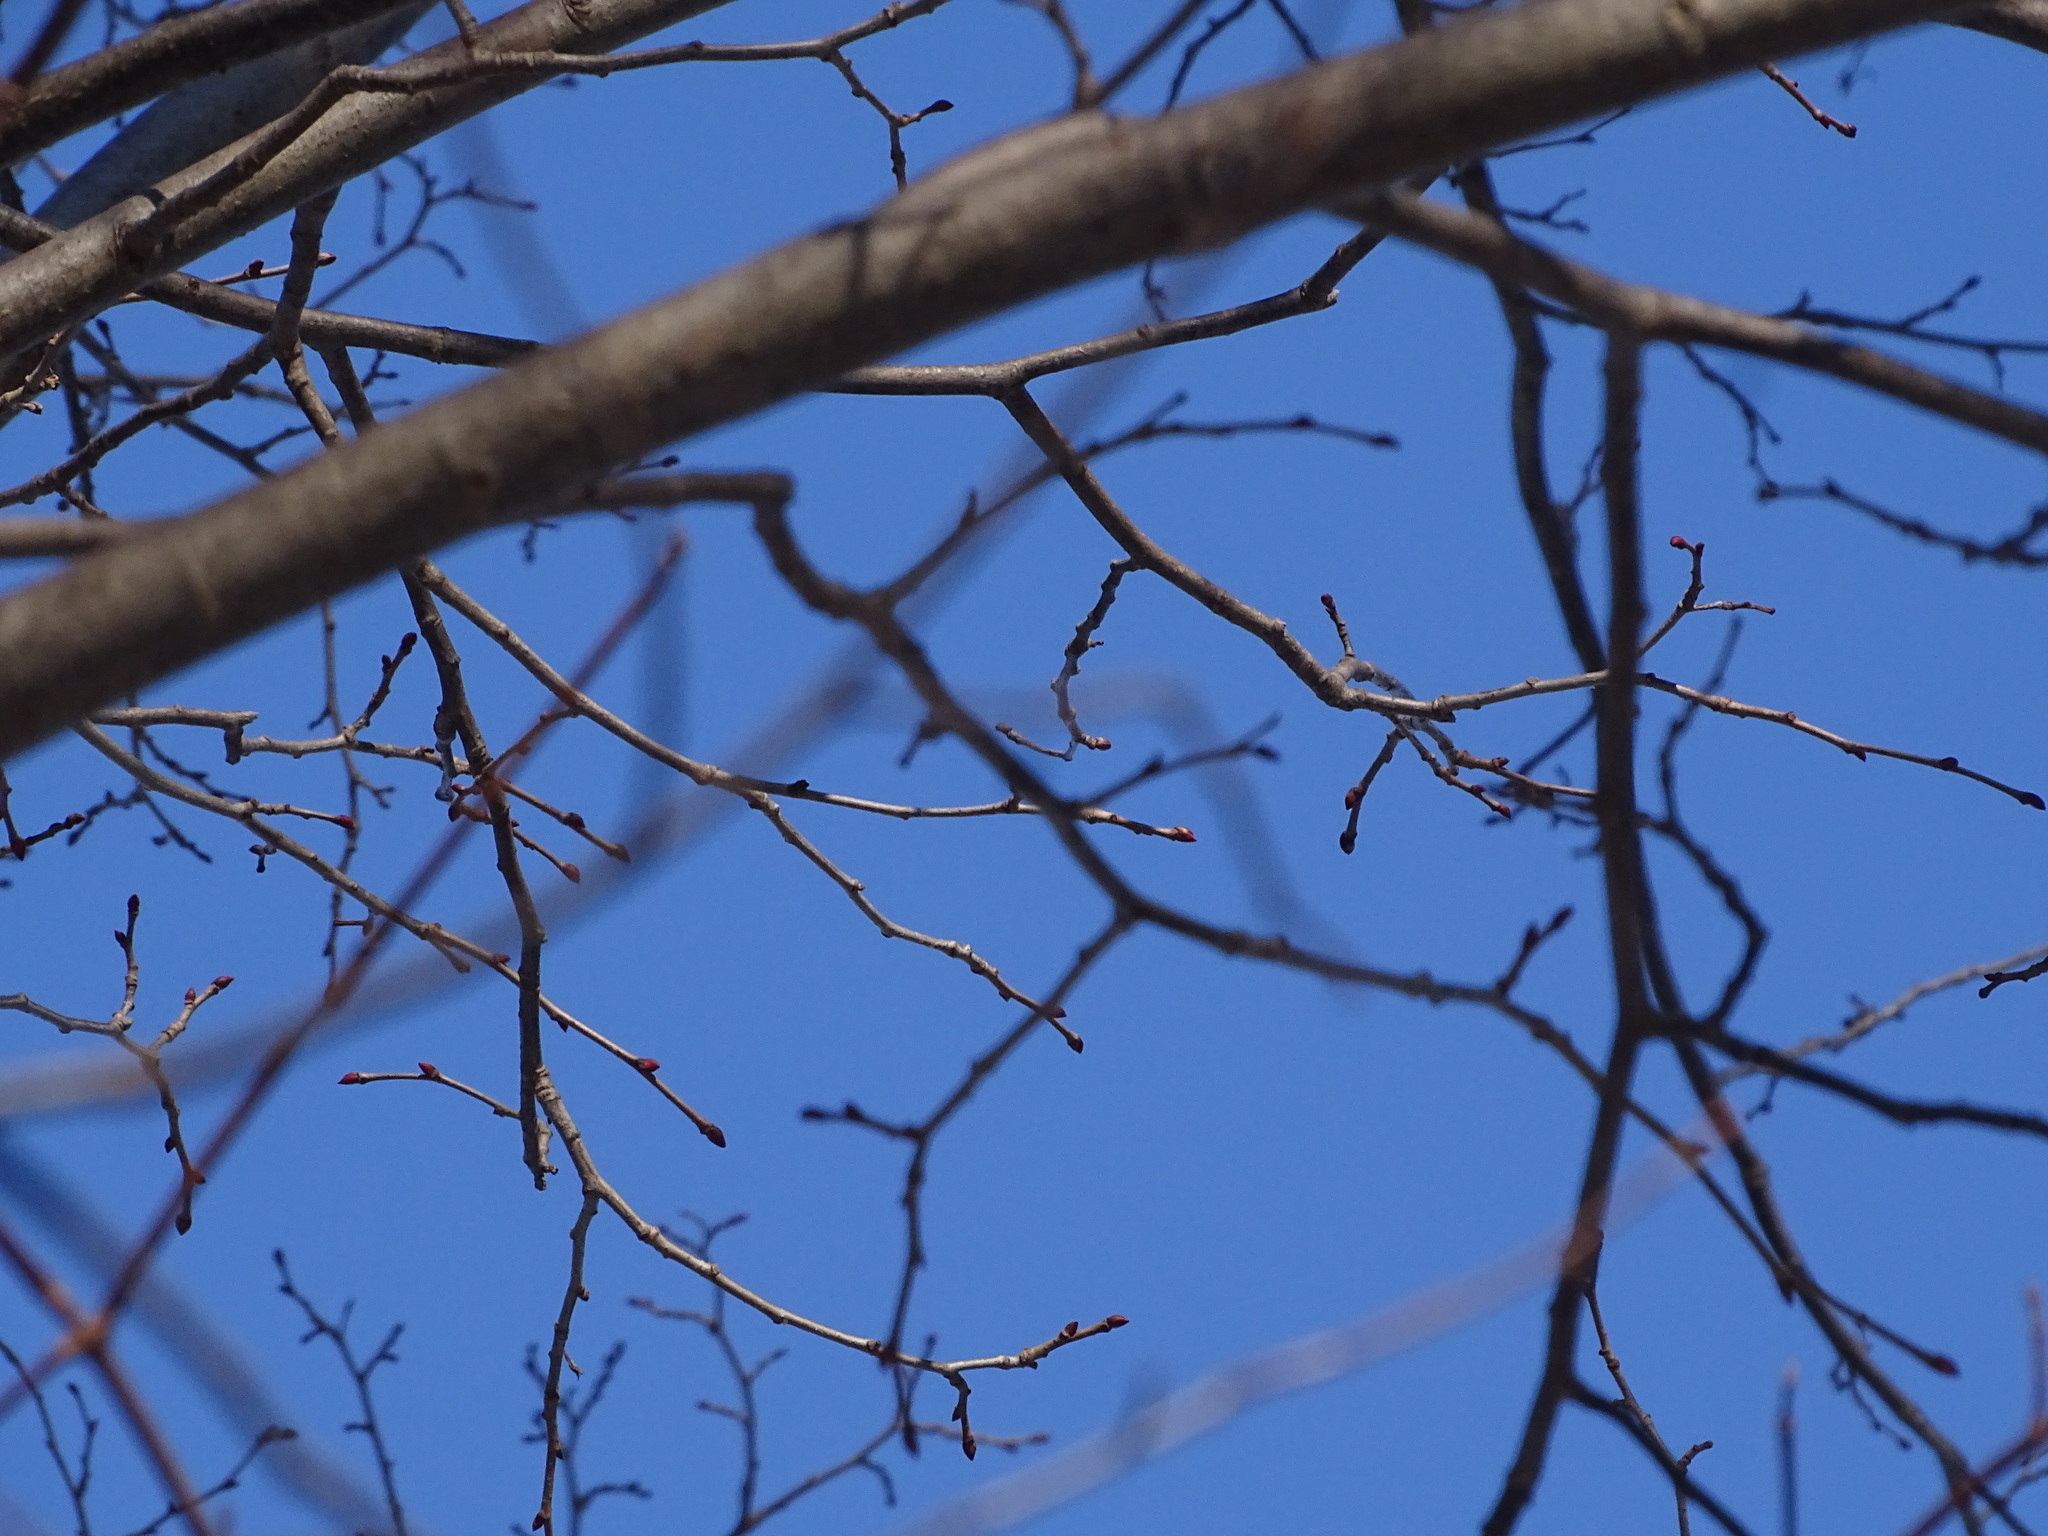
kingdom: Plantae
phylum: Tracheophyta
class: Magnoliopsida
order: Malvales
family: Malvaceae
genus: Tilia
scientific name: Tilia americana
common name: Basswood
